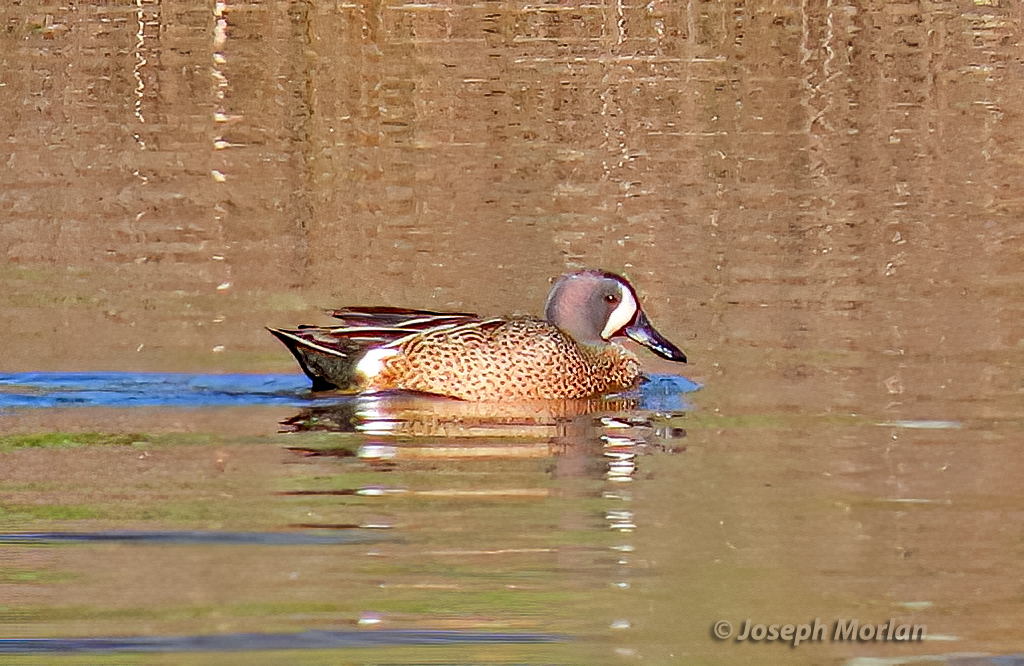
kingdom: Animalia
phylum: Chordata
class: Aves
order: Anseriformes
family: Anatidae
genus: Spatula
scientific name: Spatula discors
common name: Blue-winged teal
